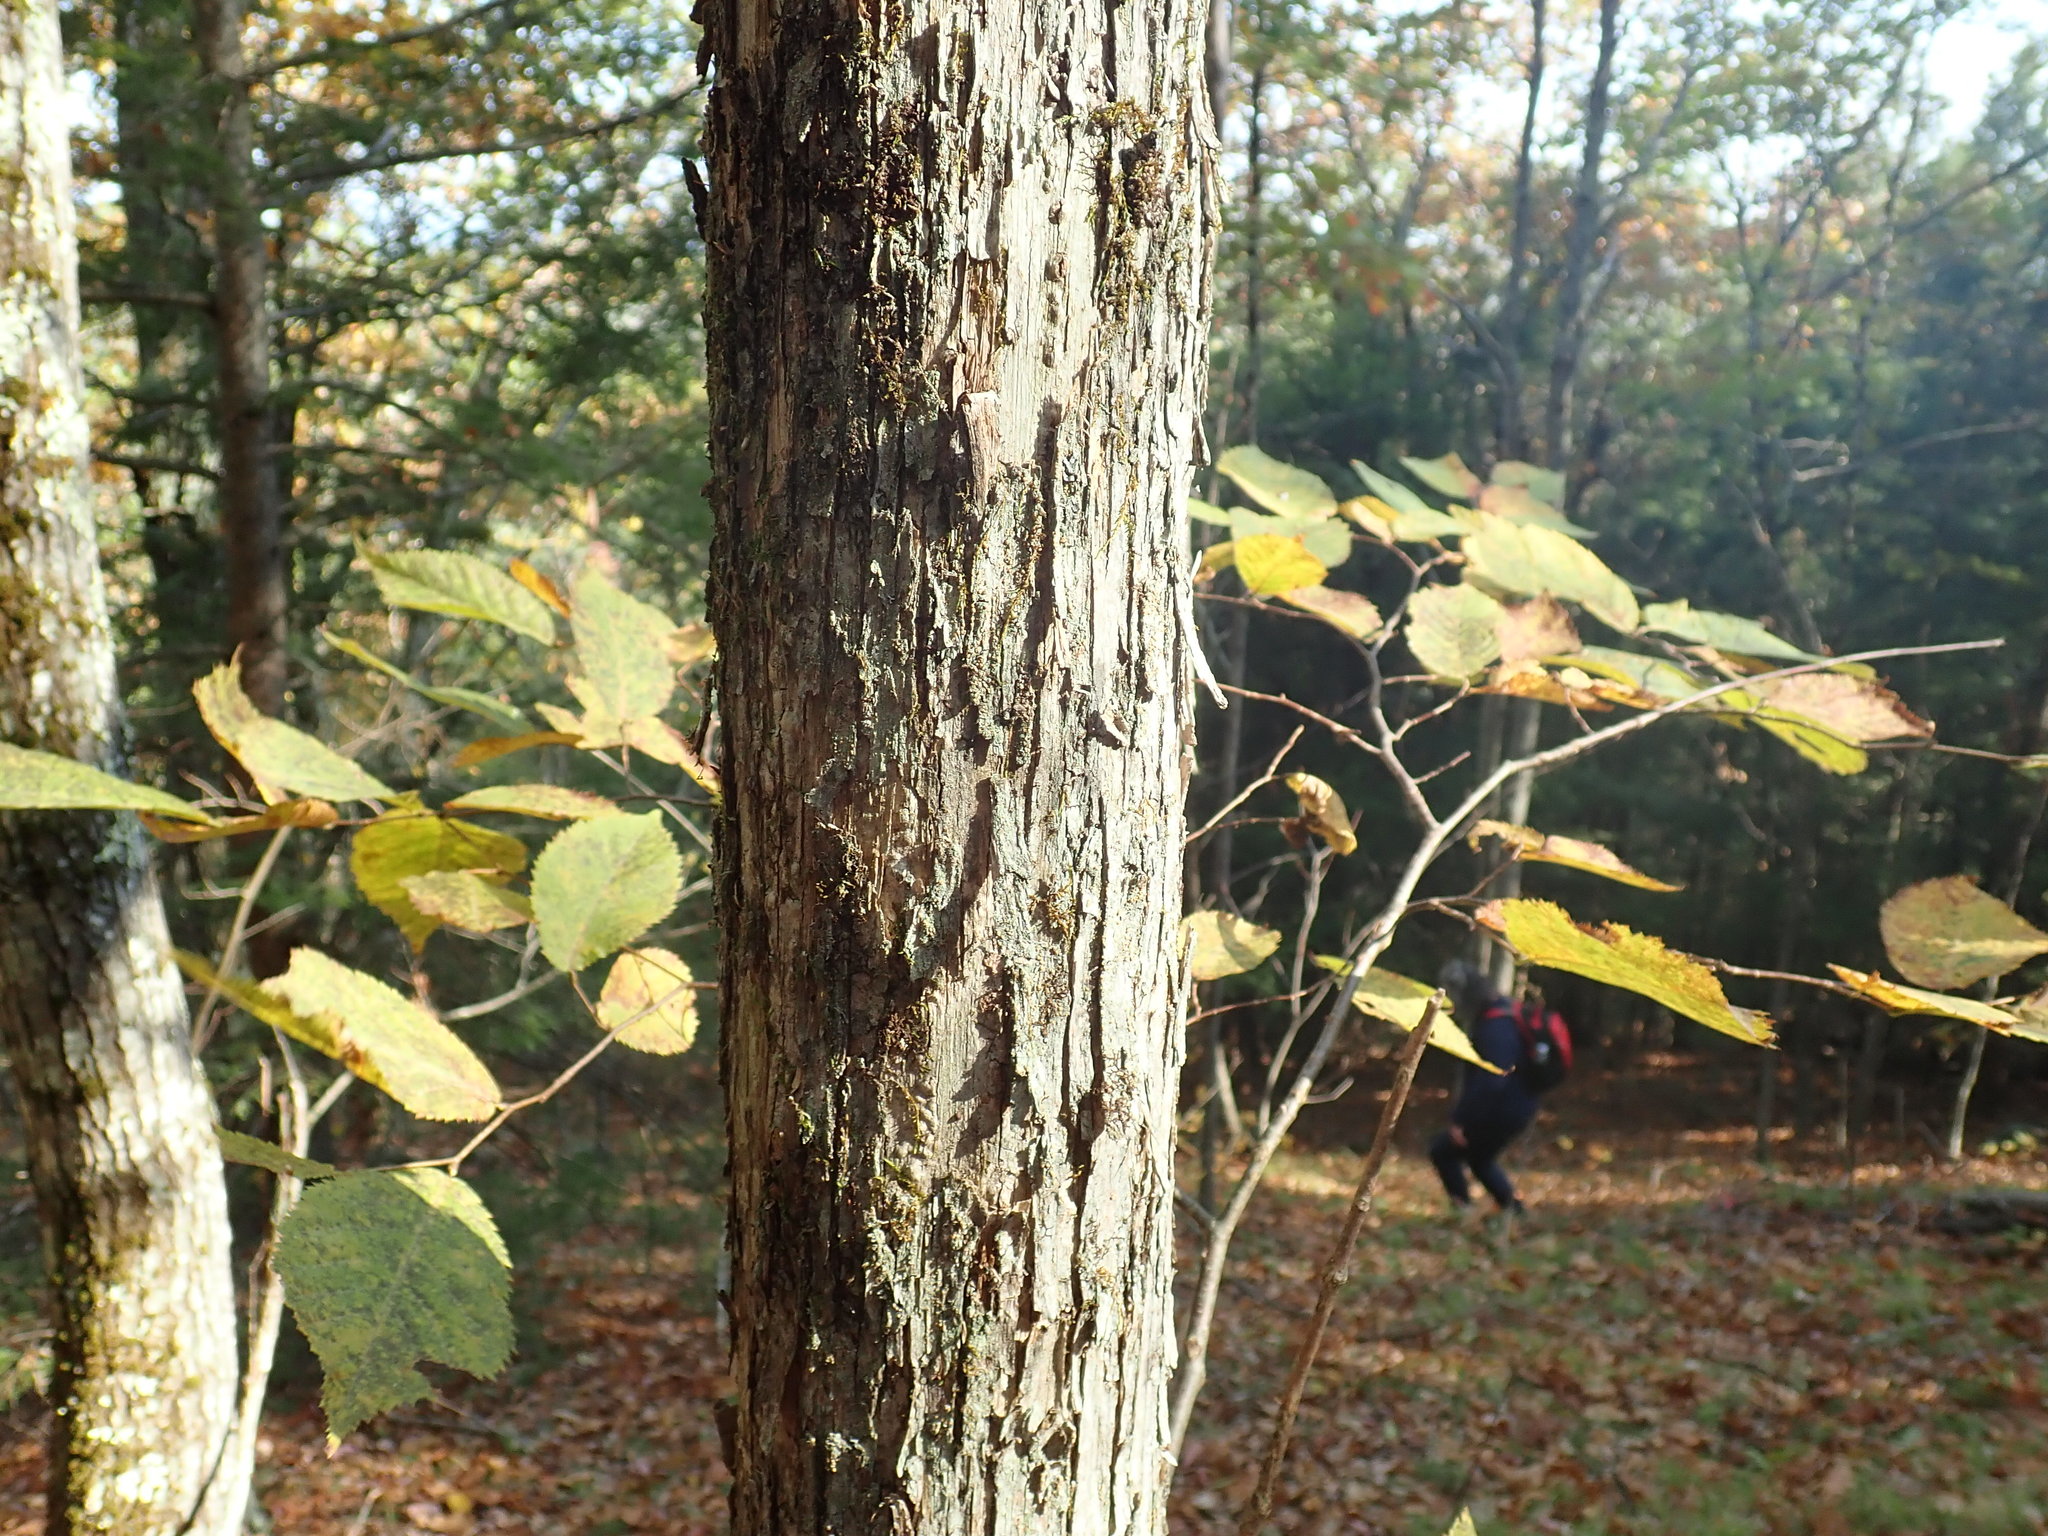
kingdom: Plantae
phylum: Tracheophyta
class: Magnoliopsida
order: Fagales
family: Betulaceae
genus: Ostrya
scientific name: Ostrya virginiana
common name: Ironwood
